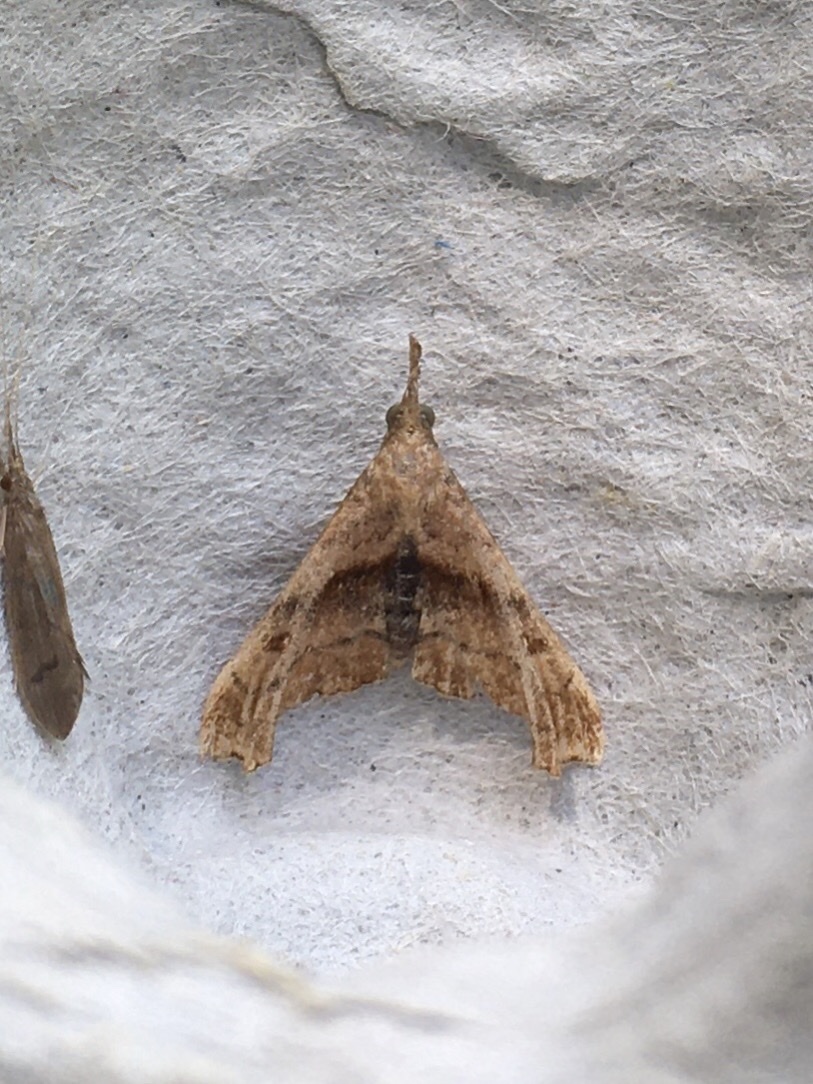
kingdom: Animalia
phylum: Arthropoda
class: Insecta
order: Lepidoptera
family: Erebidae
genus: Palthis
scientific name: Palthis angulalis
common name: Dark-spotted palthis moth
